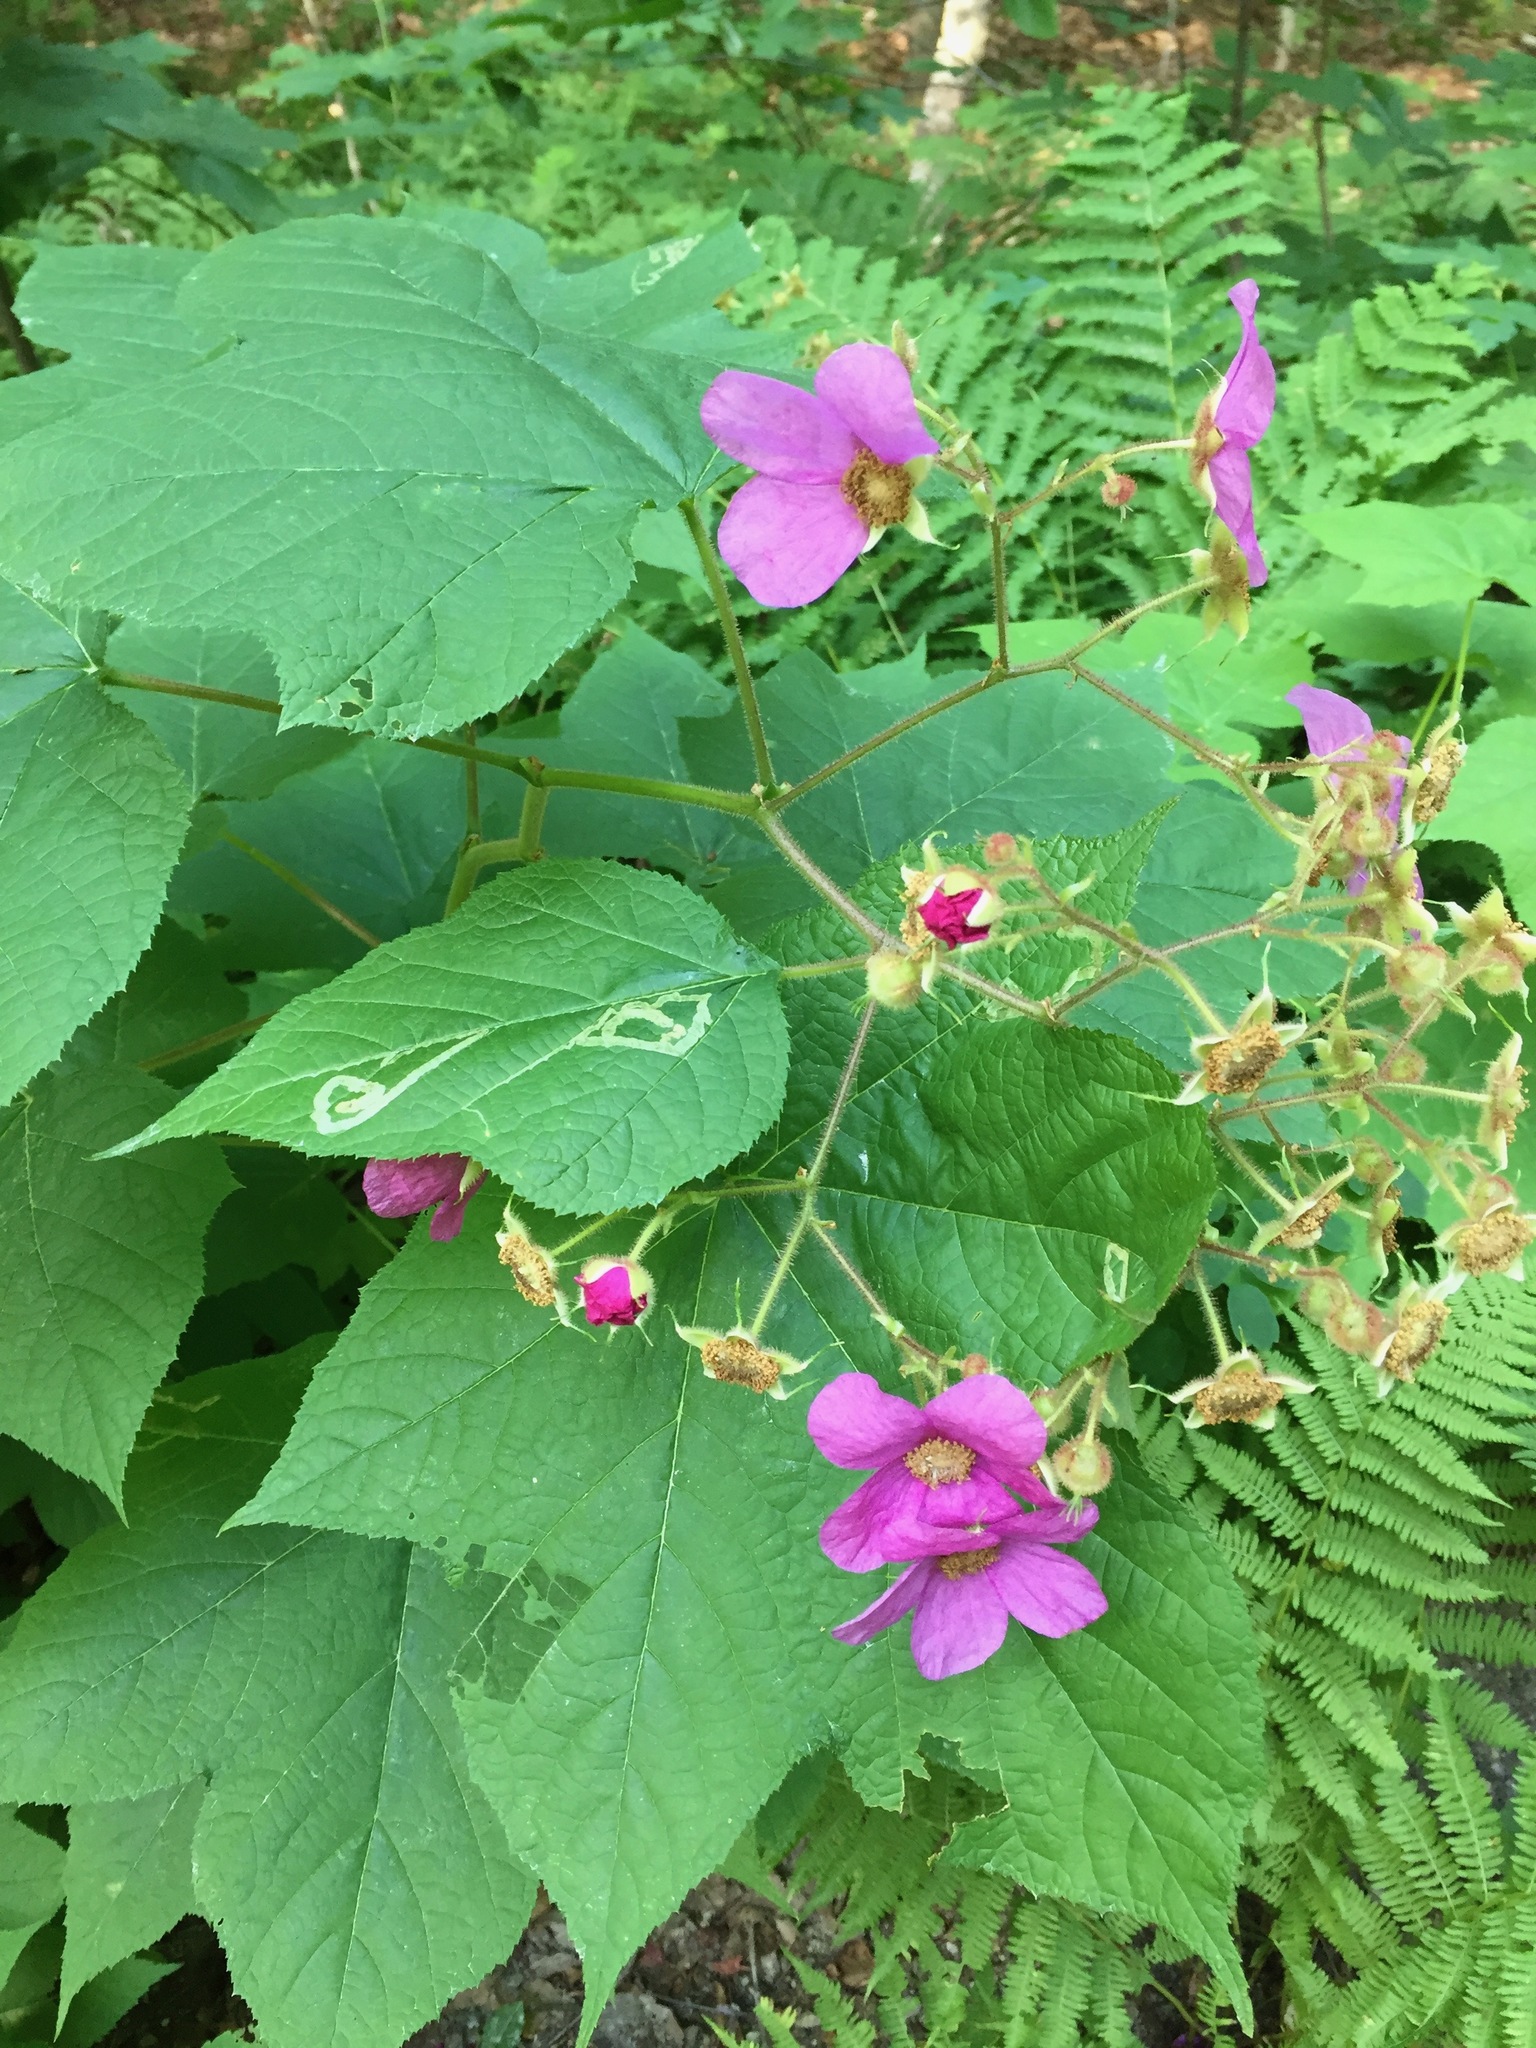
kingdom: Plantae
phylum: Tracheophyta
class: Magnoliopsida
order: Rosales
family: Rosaceae
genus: Rubus
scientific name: Rubus odoratus
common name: Purple-flowered raspberry
